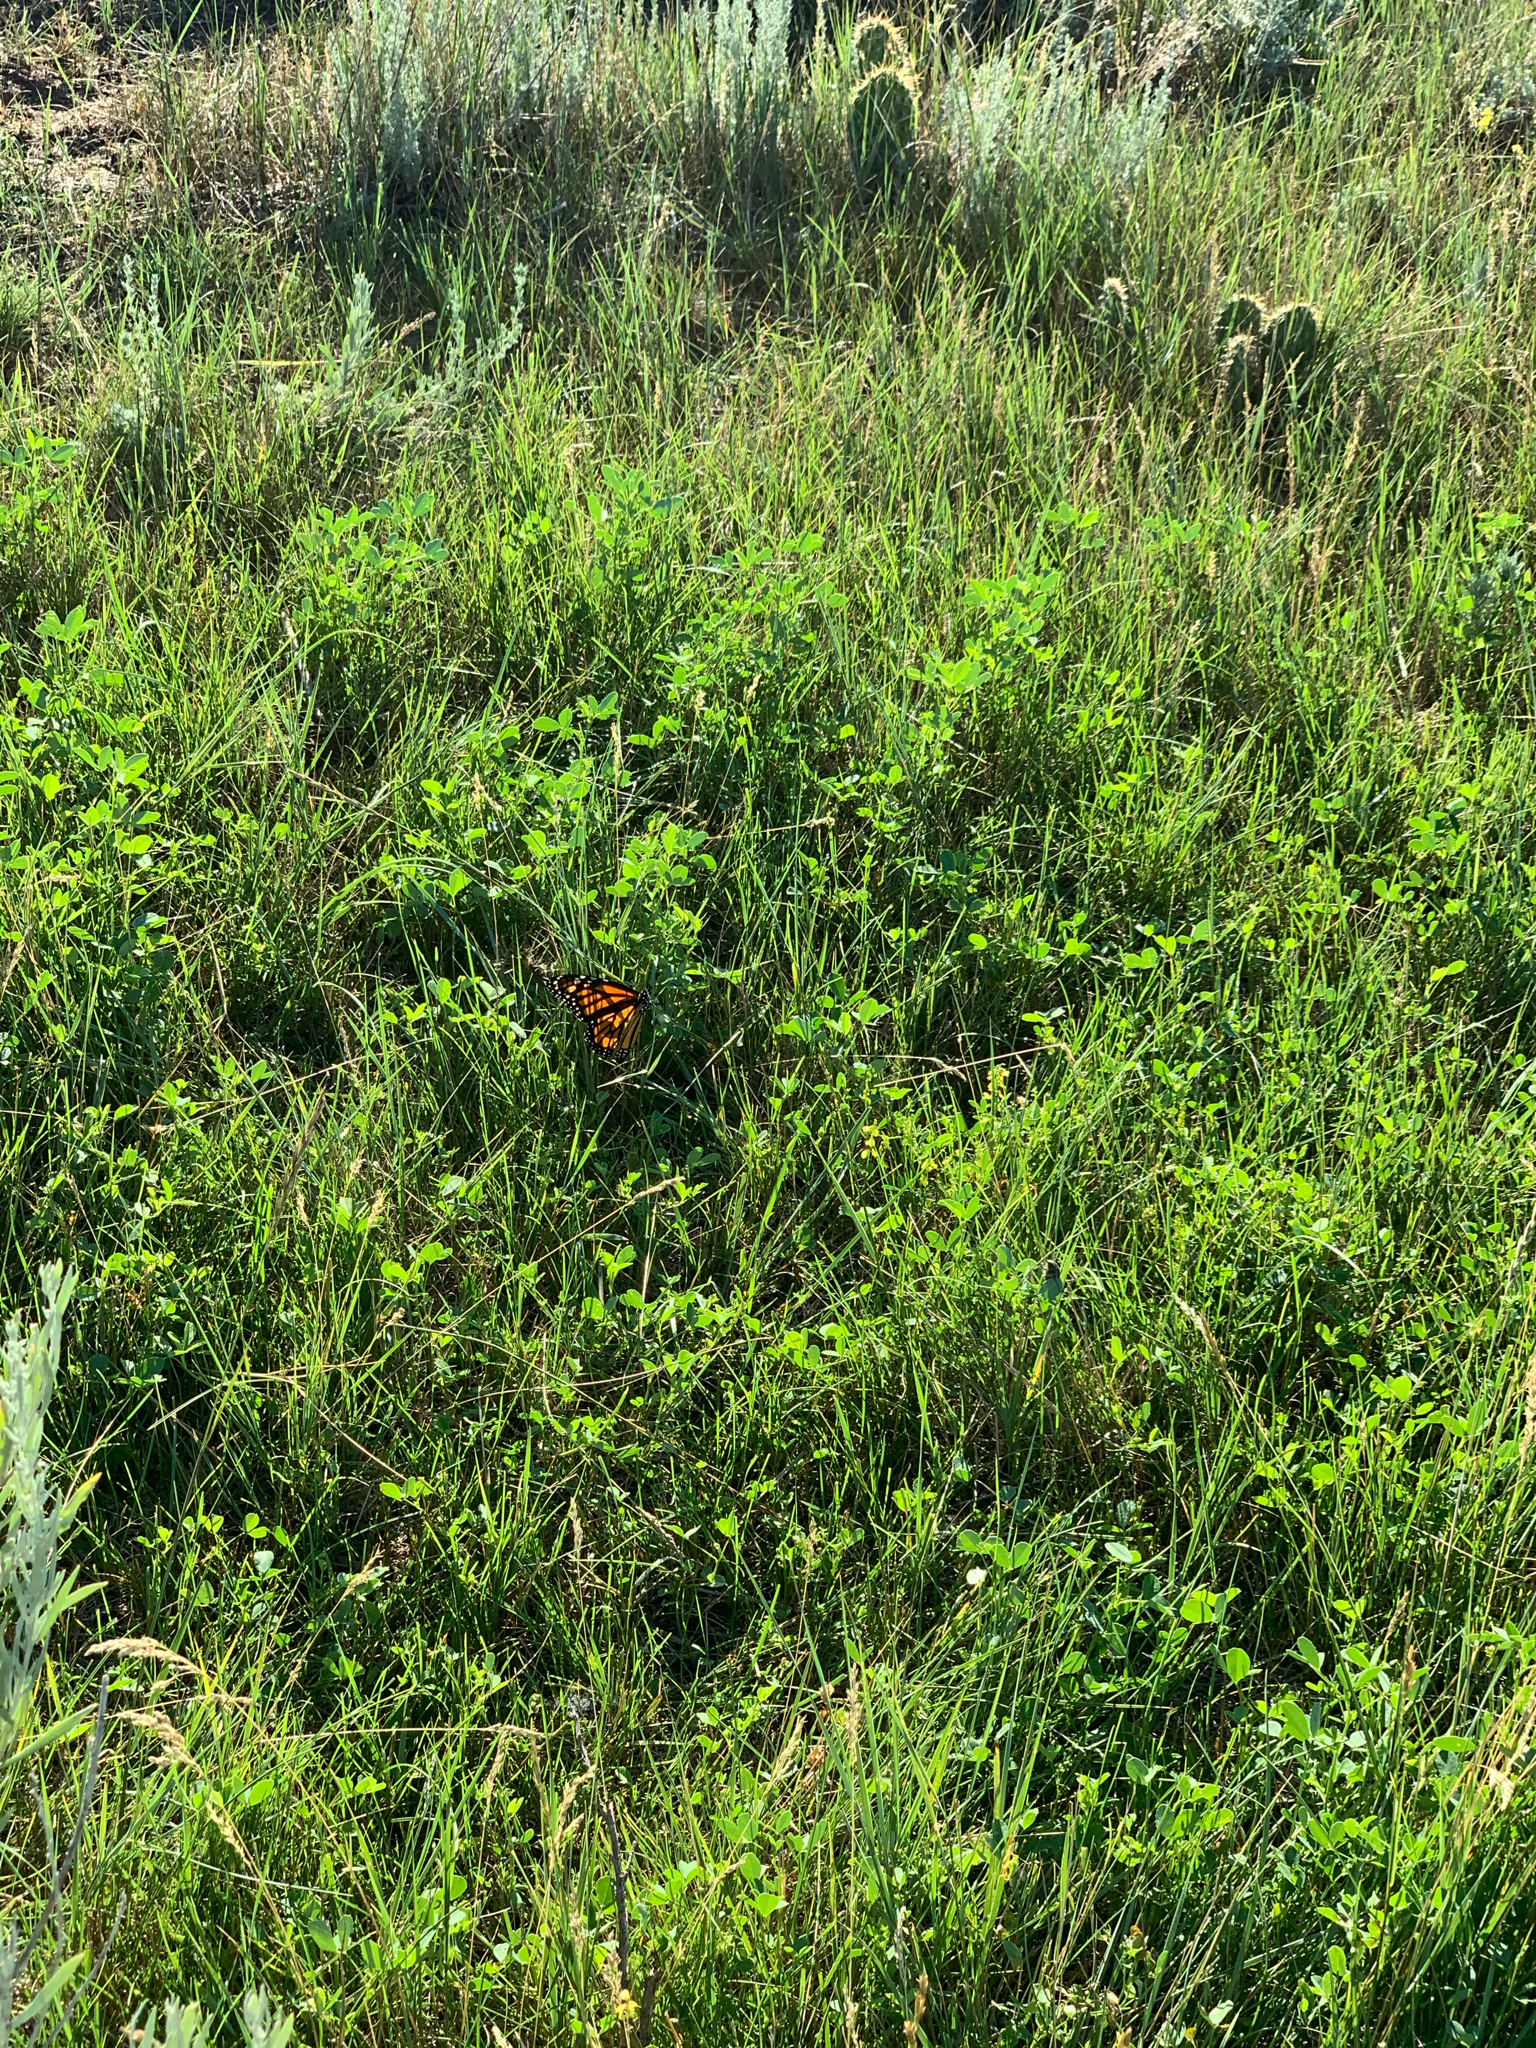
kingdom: Animalia
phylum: Arthropoda
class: Insecta
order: Lepidoptera
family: Nymphalidae
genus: Danaus
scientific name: Danaus plexippus
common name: Monarch
